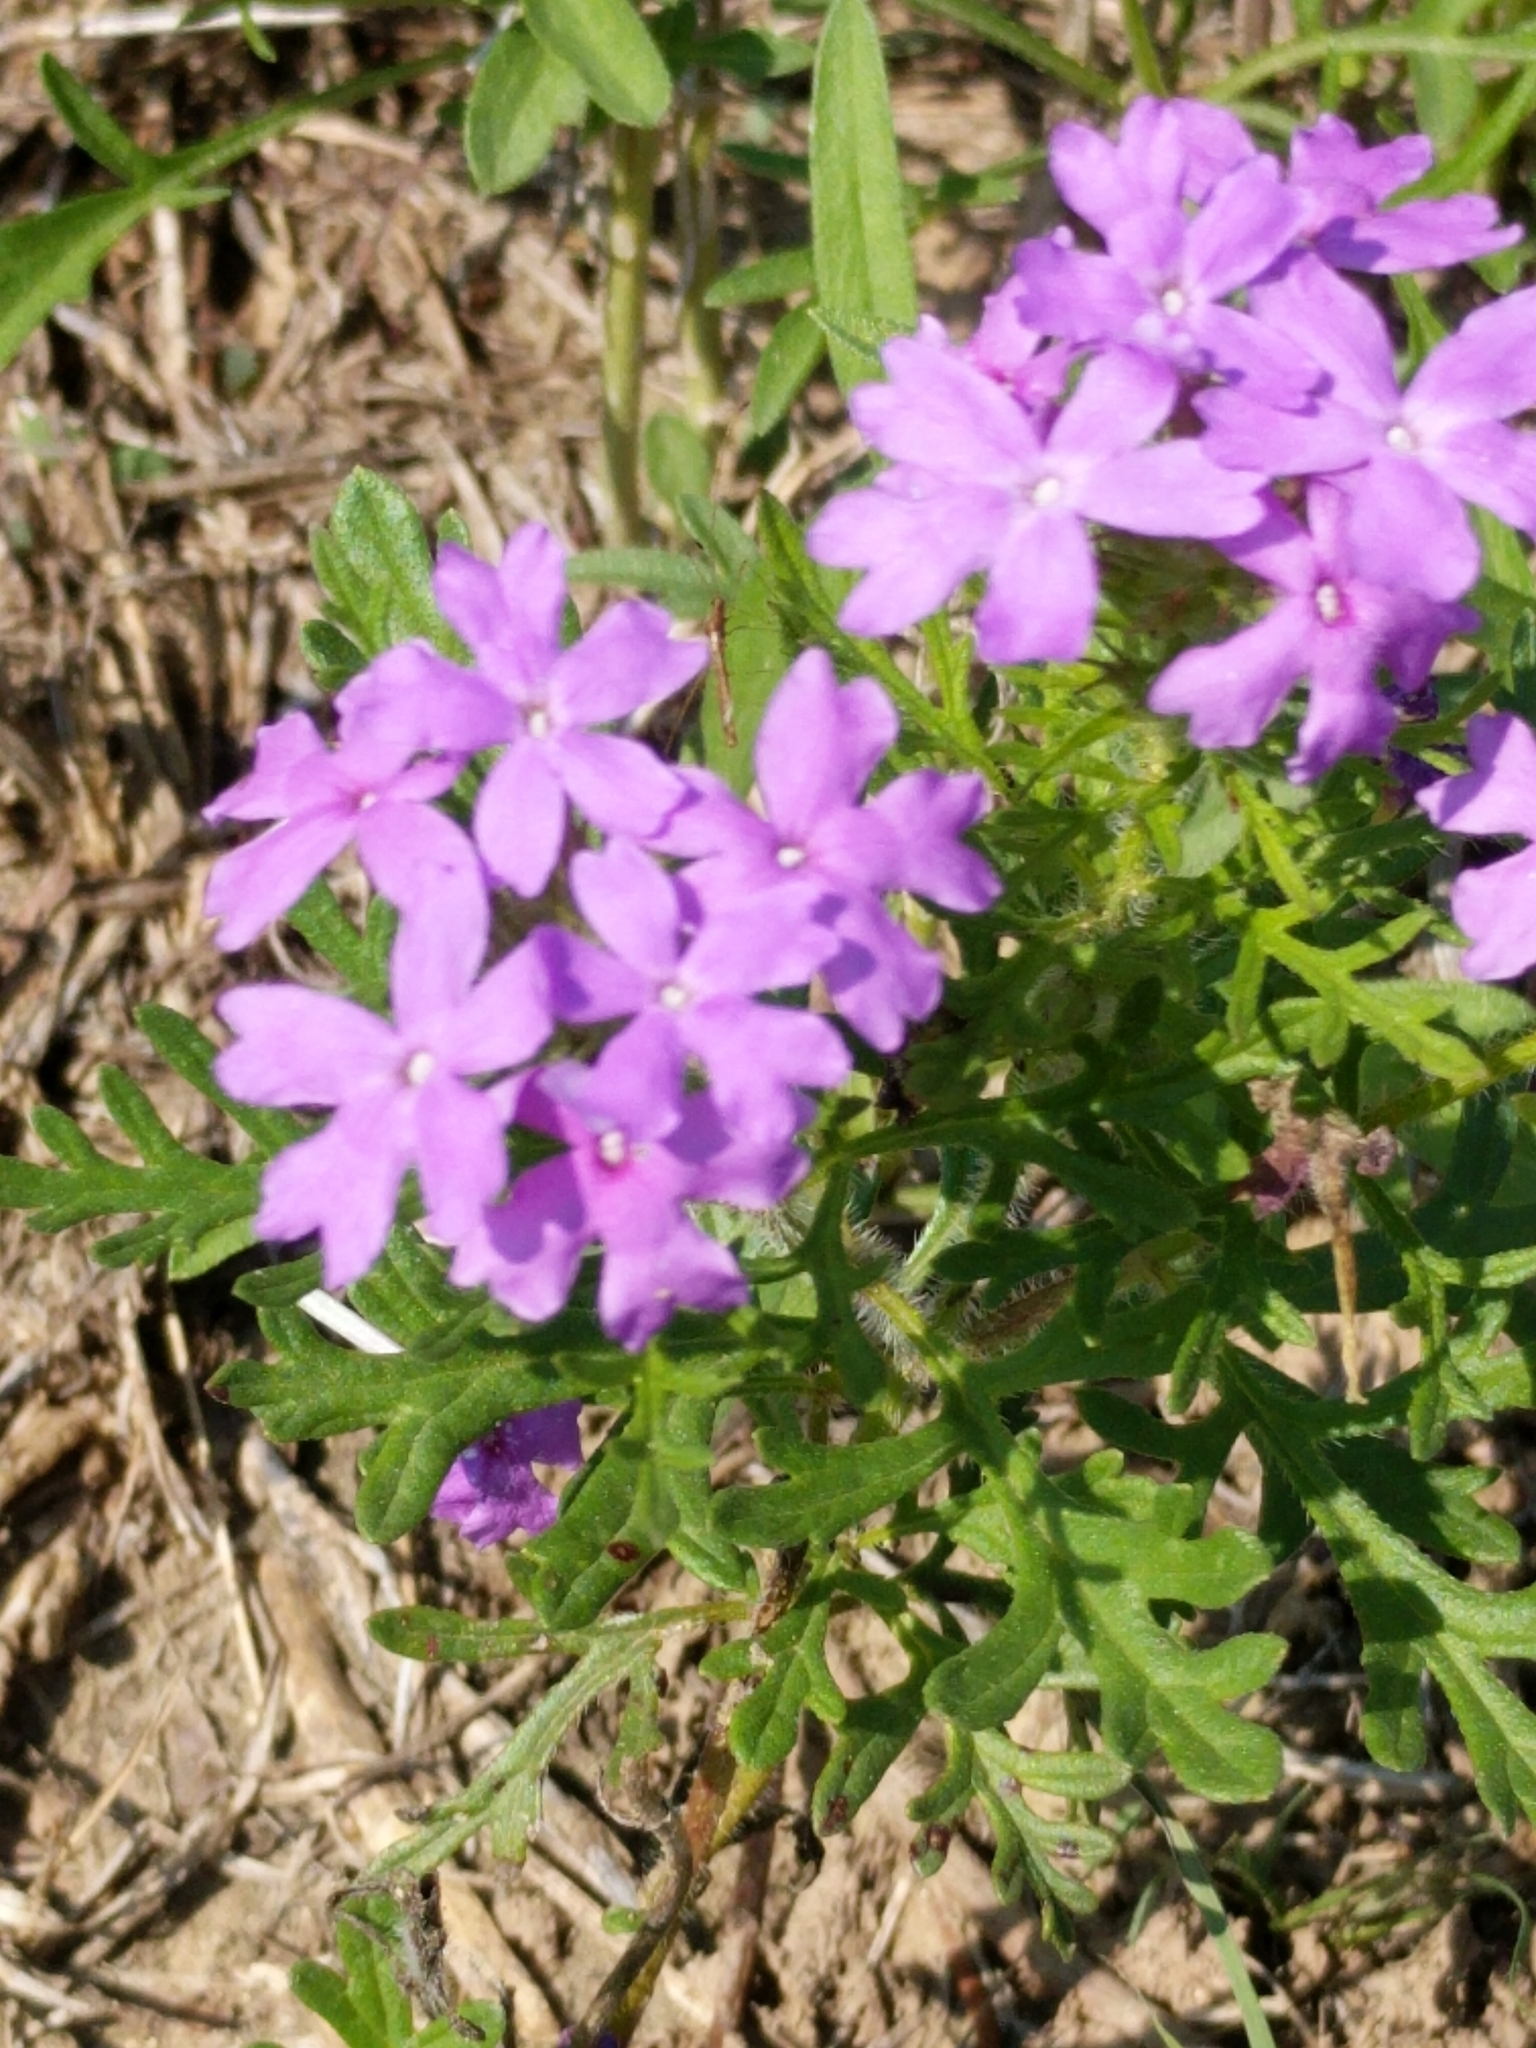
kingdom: Plantae
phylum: Tracheophyta
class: Magnoliopsida
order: Lamiales
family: Verbenaceae
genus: Verbena
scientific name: Verbena bipinnatifida
